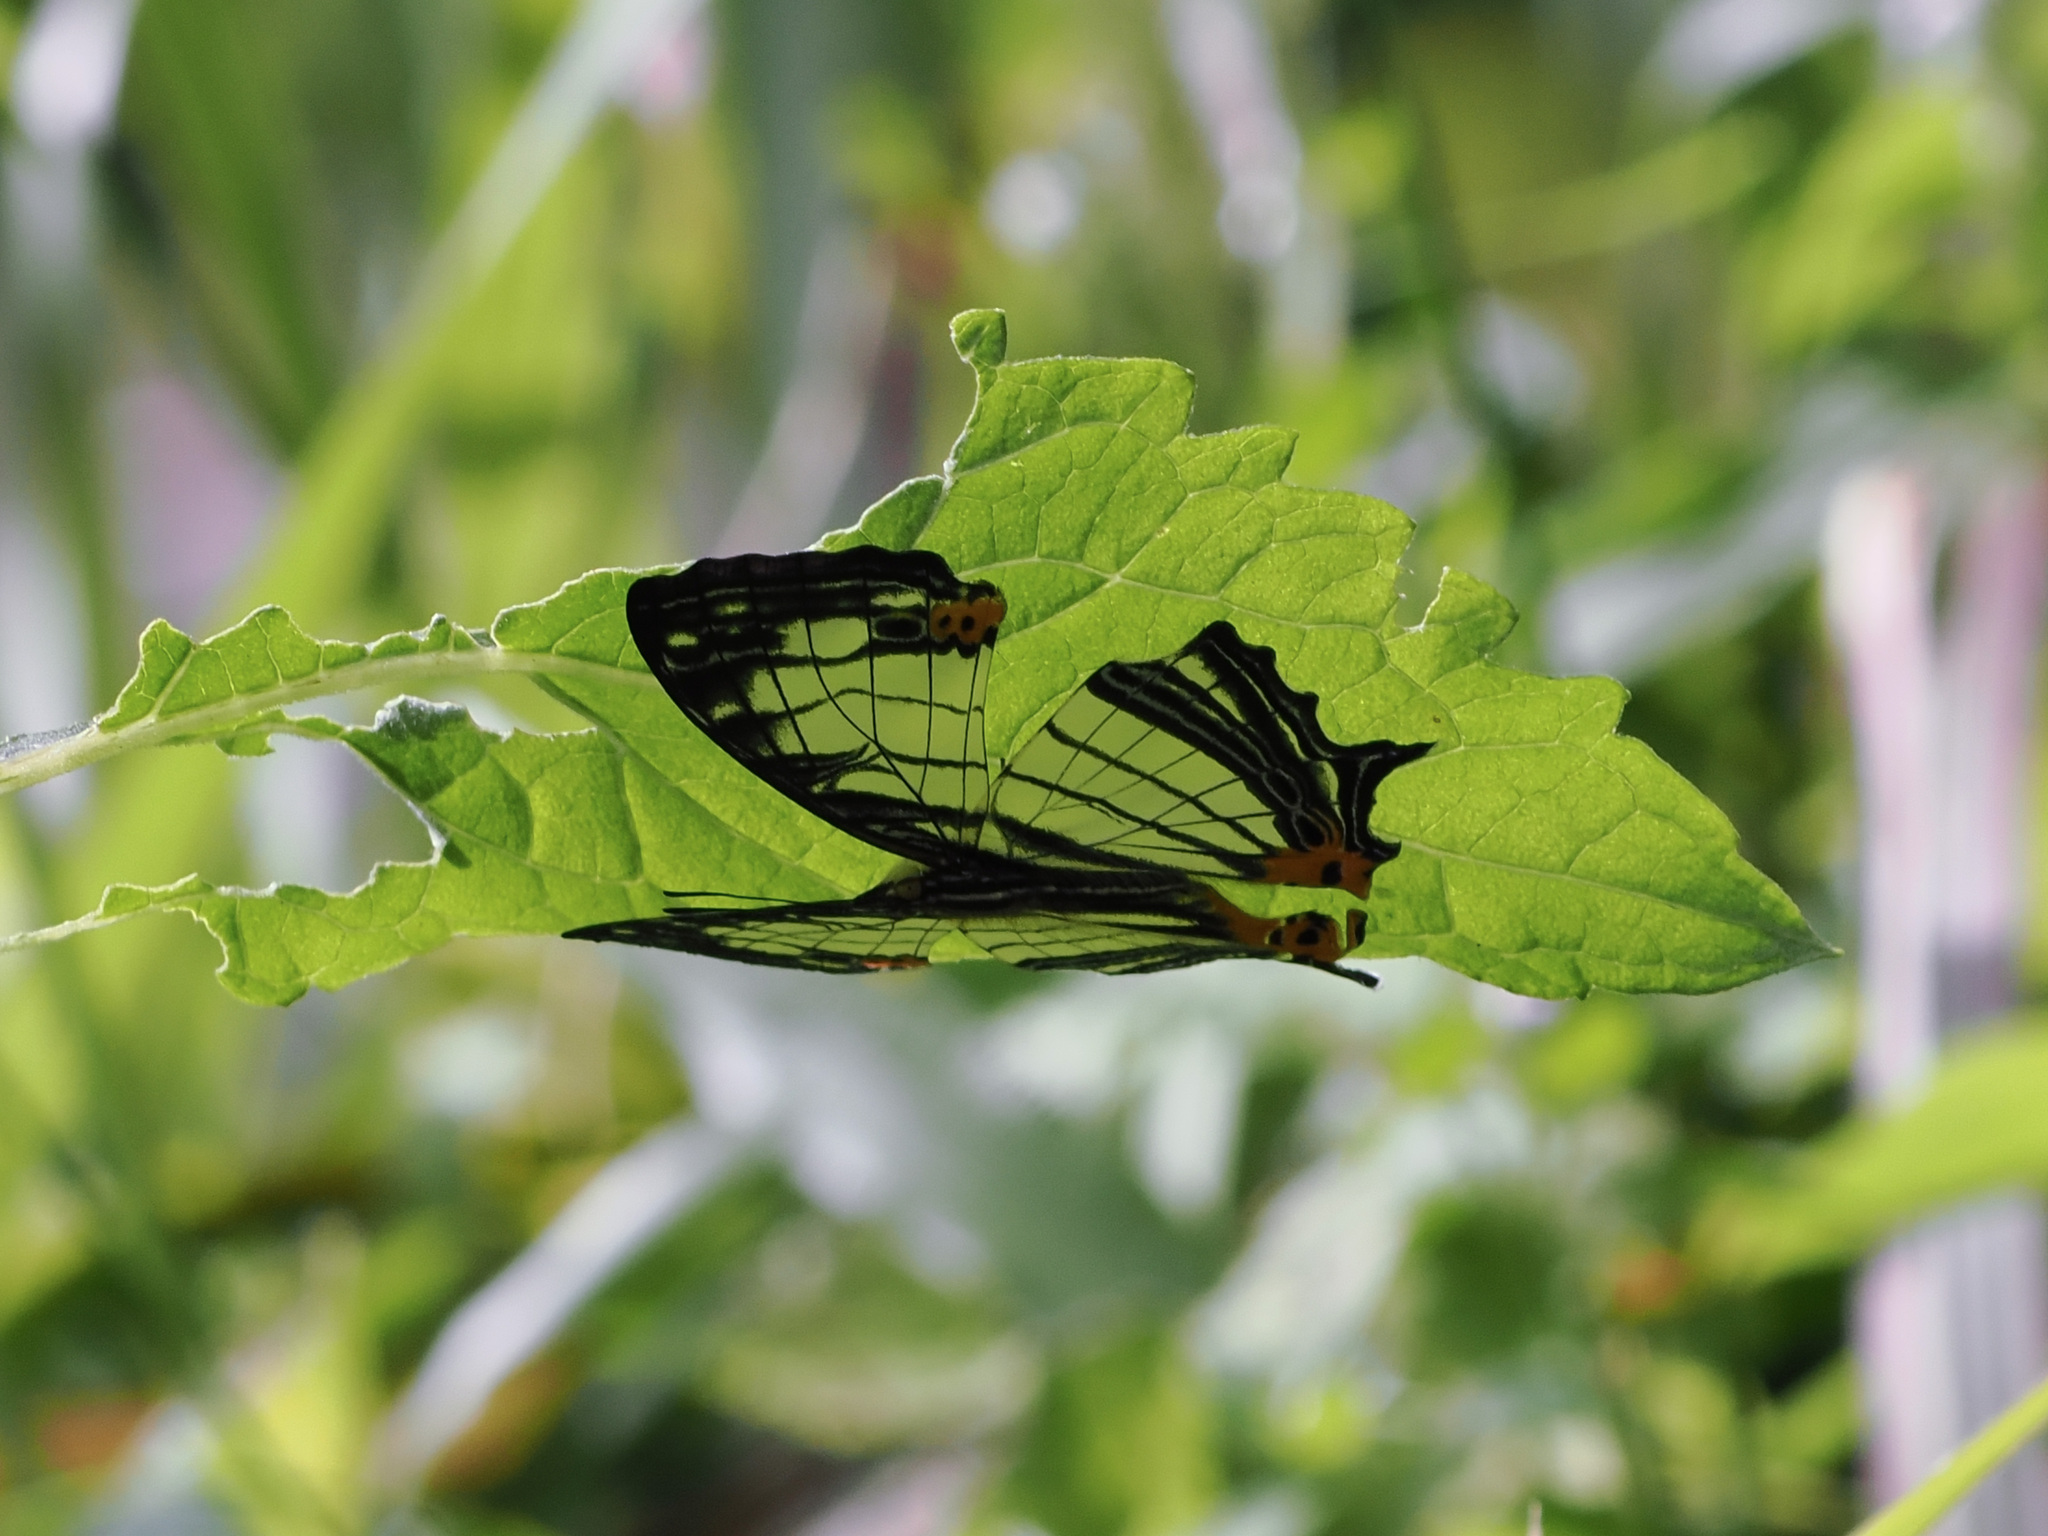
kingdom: Animalia
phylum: Arthropoda
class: Insecta
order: Lepidoptera
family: Nymphalidae
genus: Cyrestis
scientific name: Cyrestis maenalis
